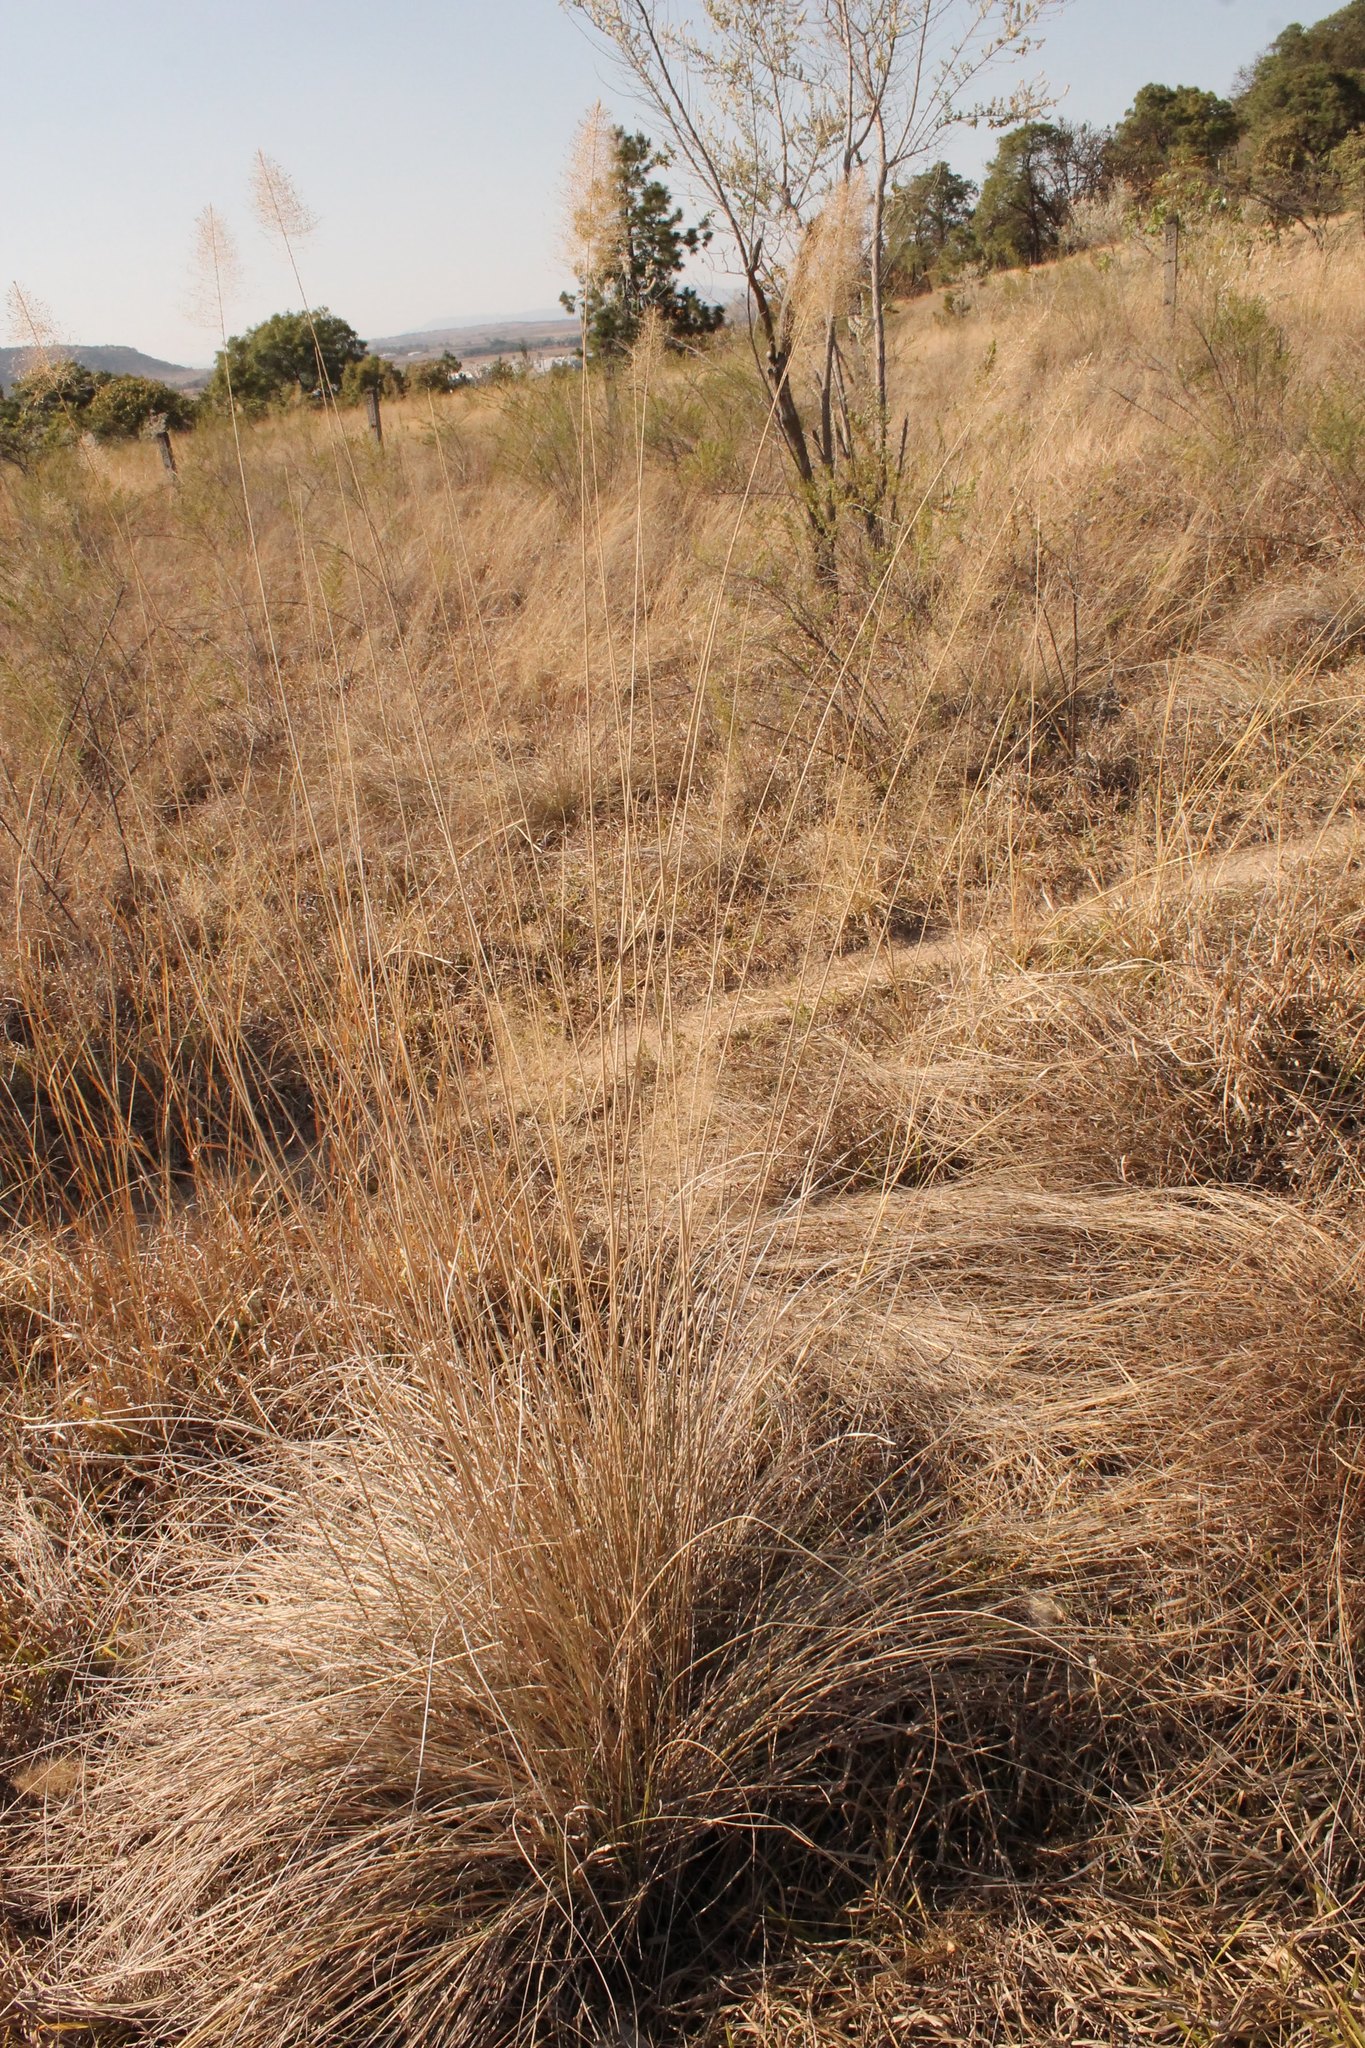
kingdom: Plantae
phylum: Tracheophyta
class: Liliopsida
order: Poales
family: Poaceae
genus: Muhlenbergia
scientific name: Muhlenbergia stricta
